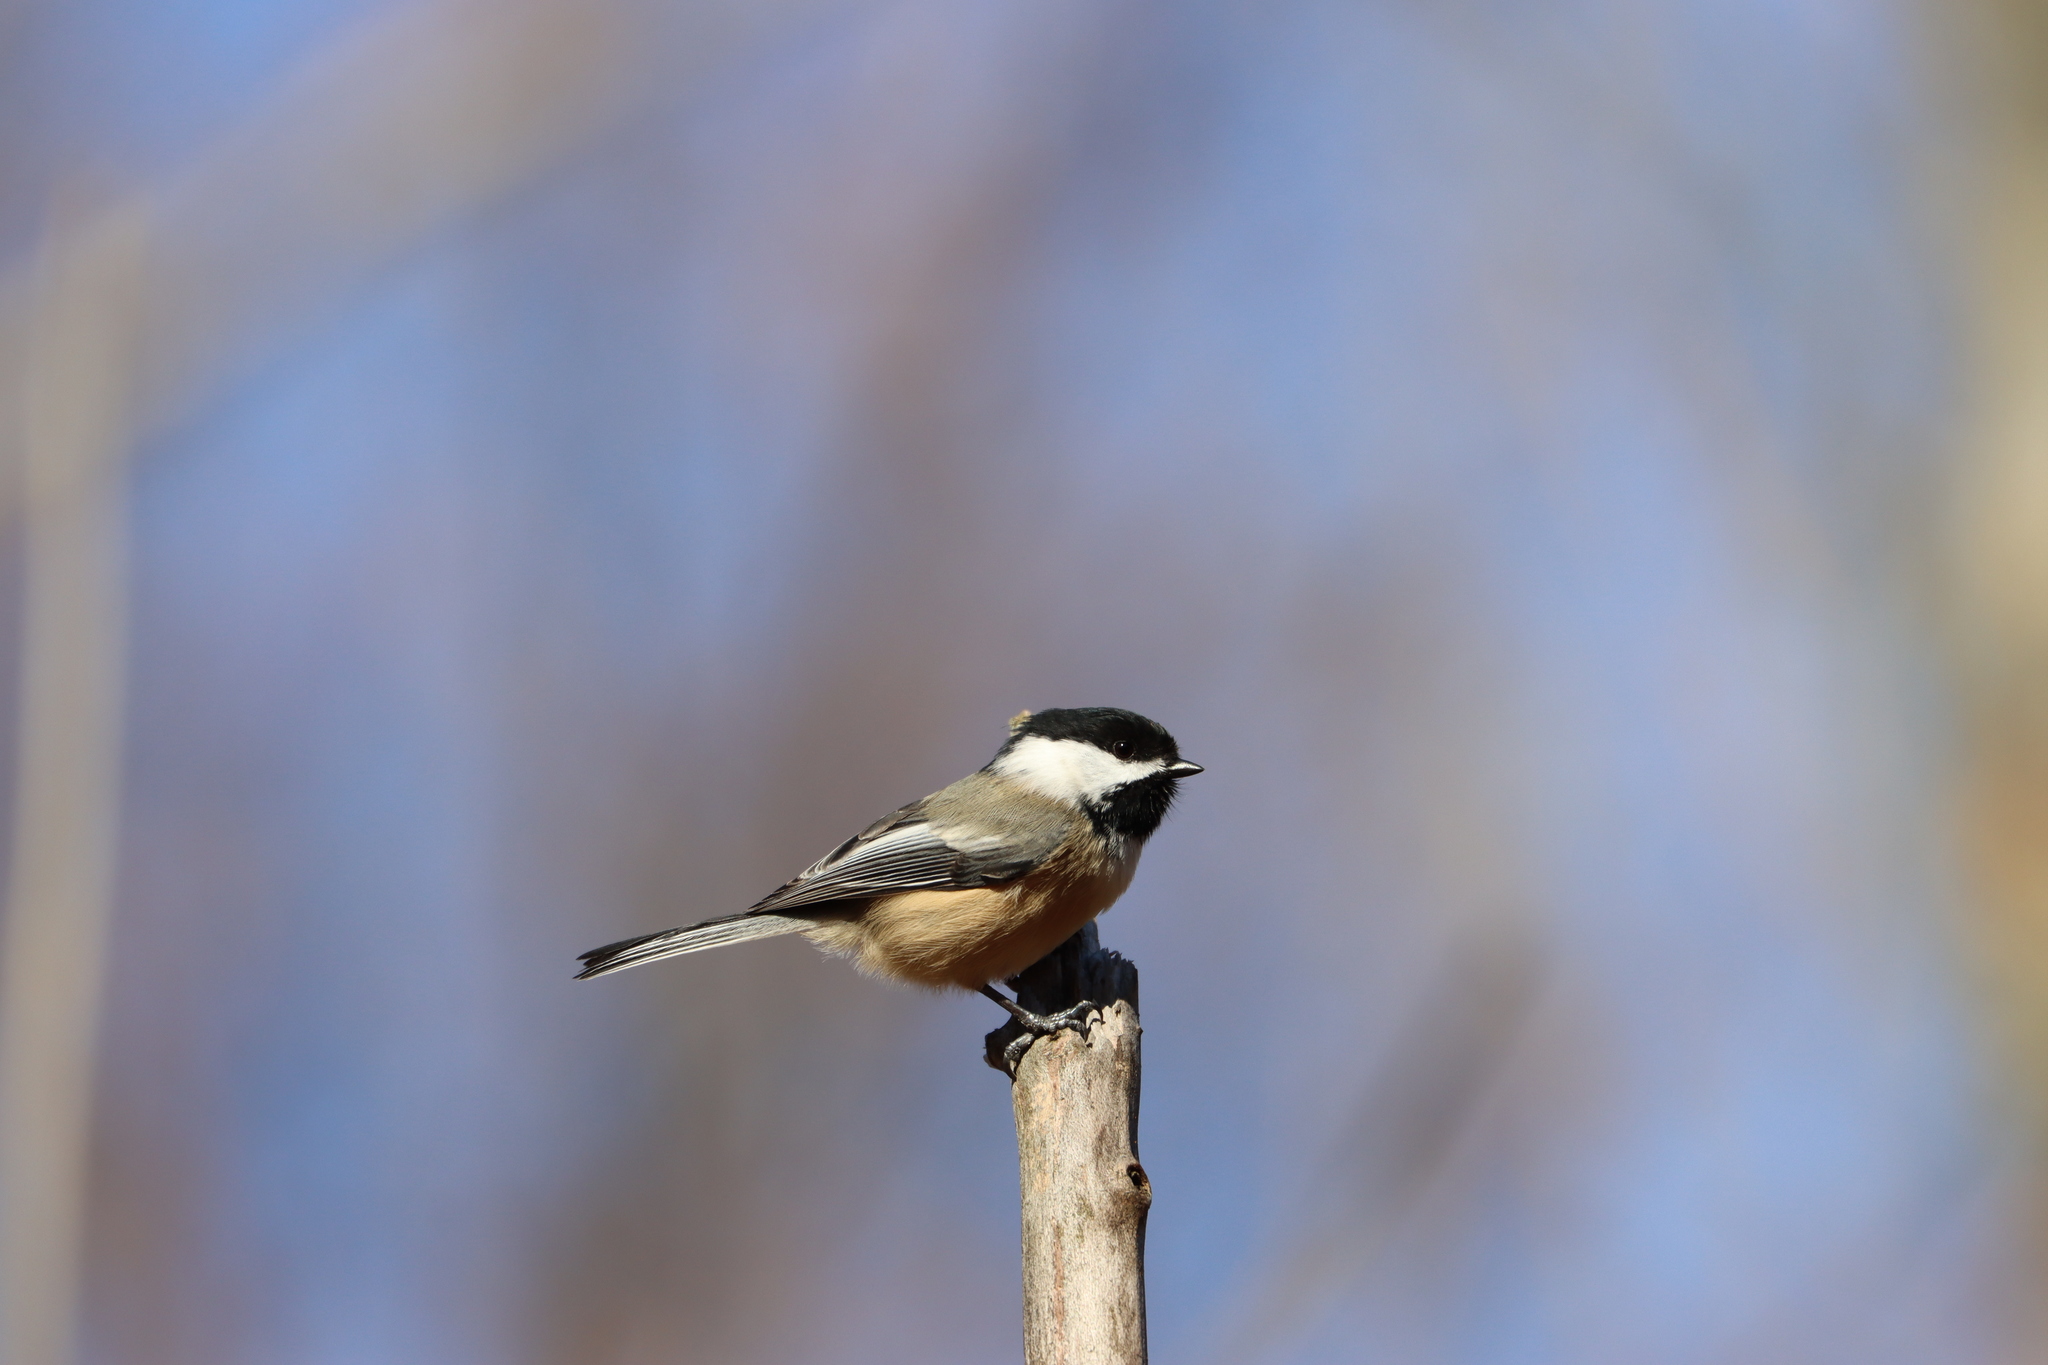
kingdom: Animalia
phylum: Chordata
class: Aves
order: Passeriformes
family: Paridae
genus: Poecile
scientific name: Poecile atricapillus
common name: Black-capped chickadee
